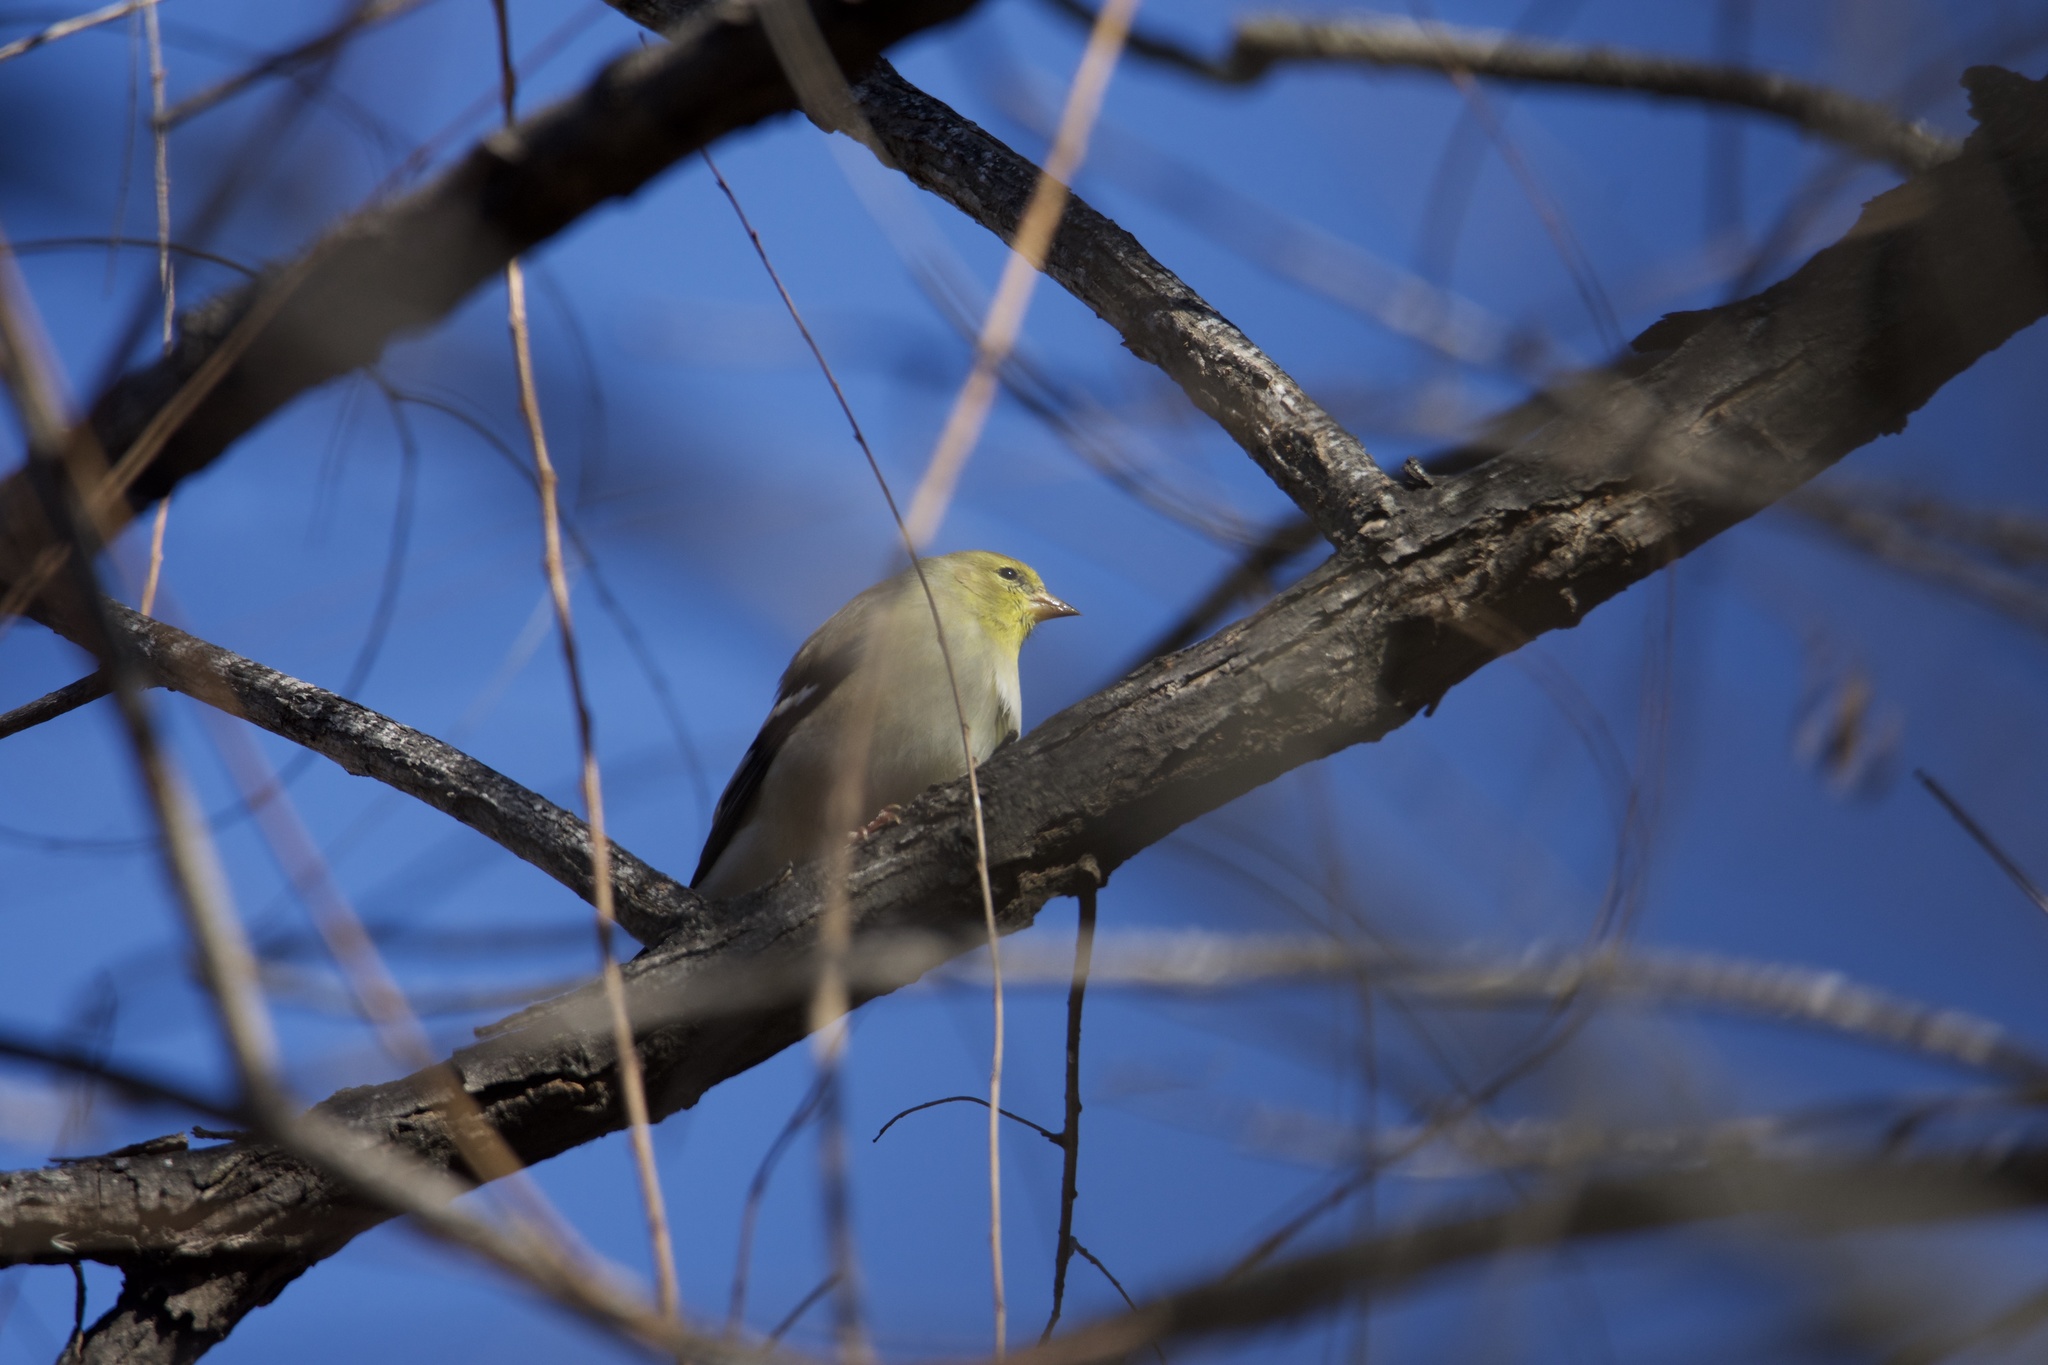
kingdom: Animalia
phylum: Chordata
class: Aves
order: Passeriformes
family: Fringillidae
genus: Spinus
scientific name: Spinus tristis
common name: American goldfinch
